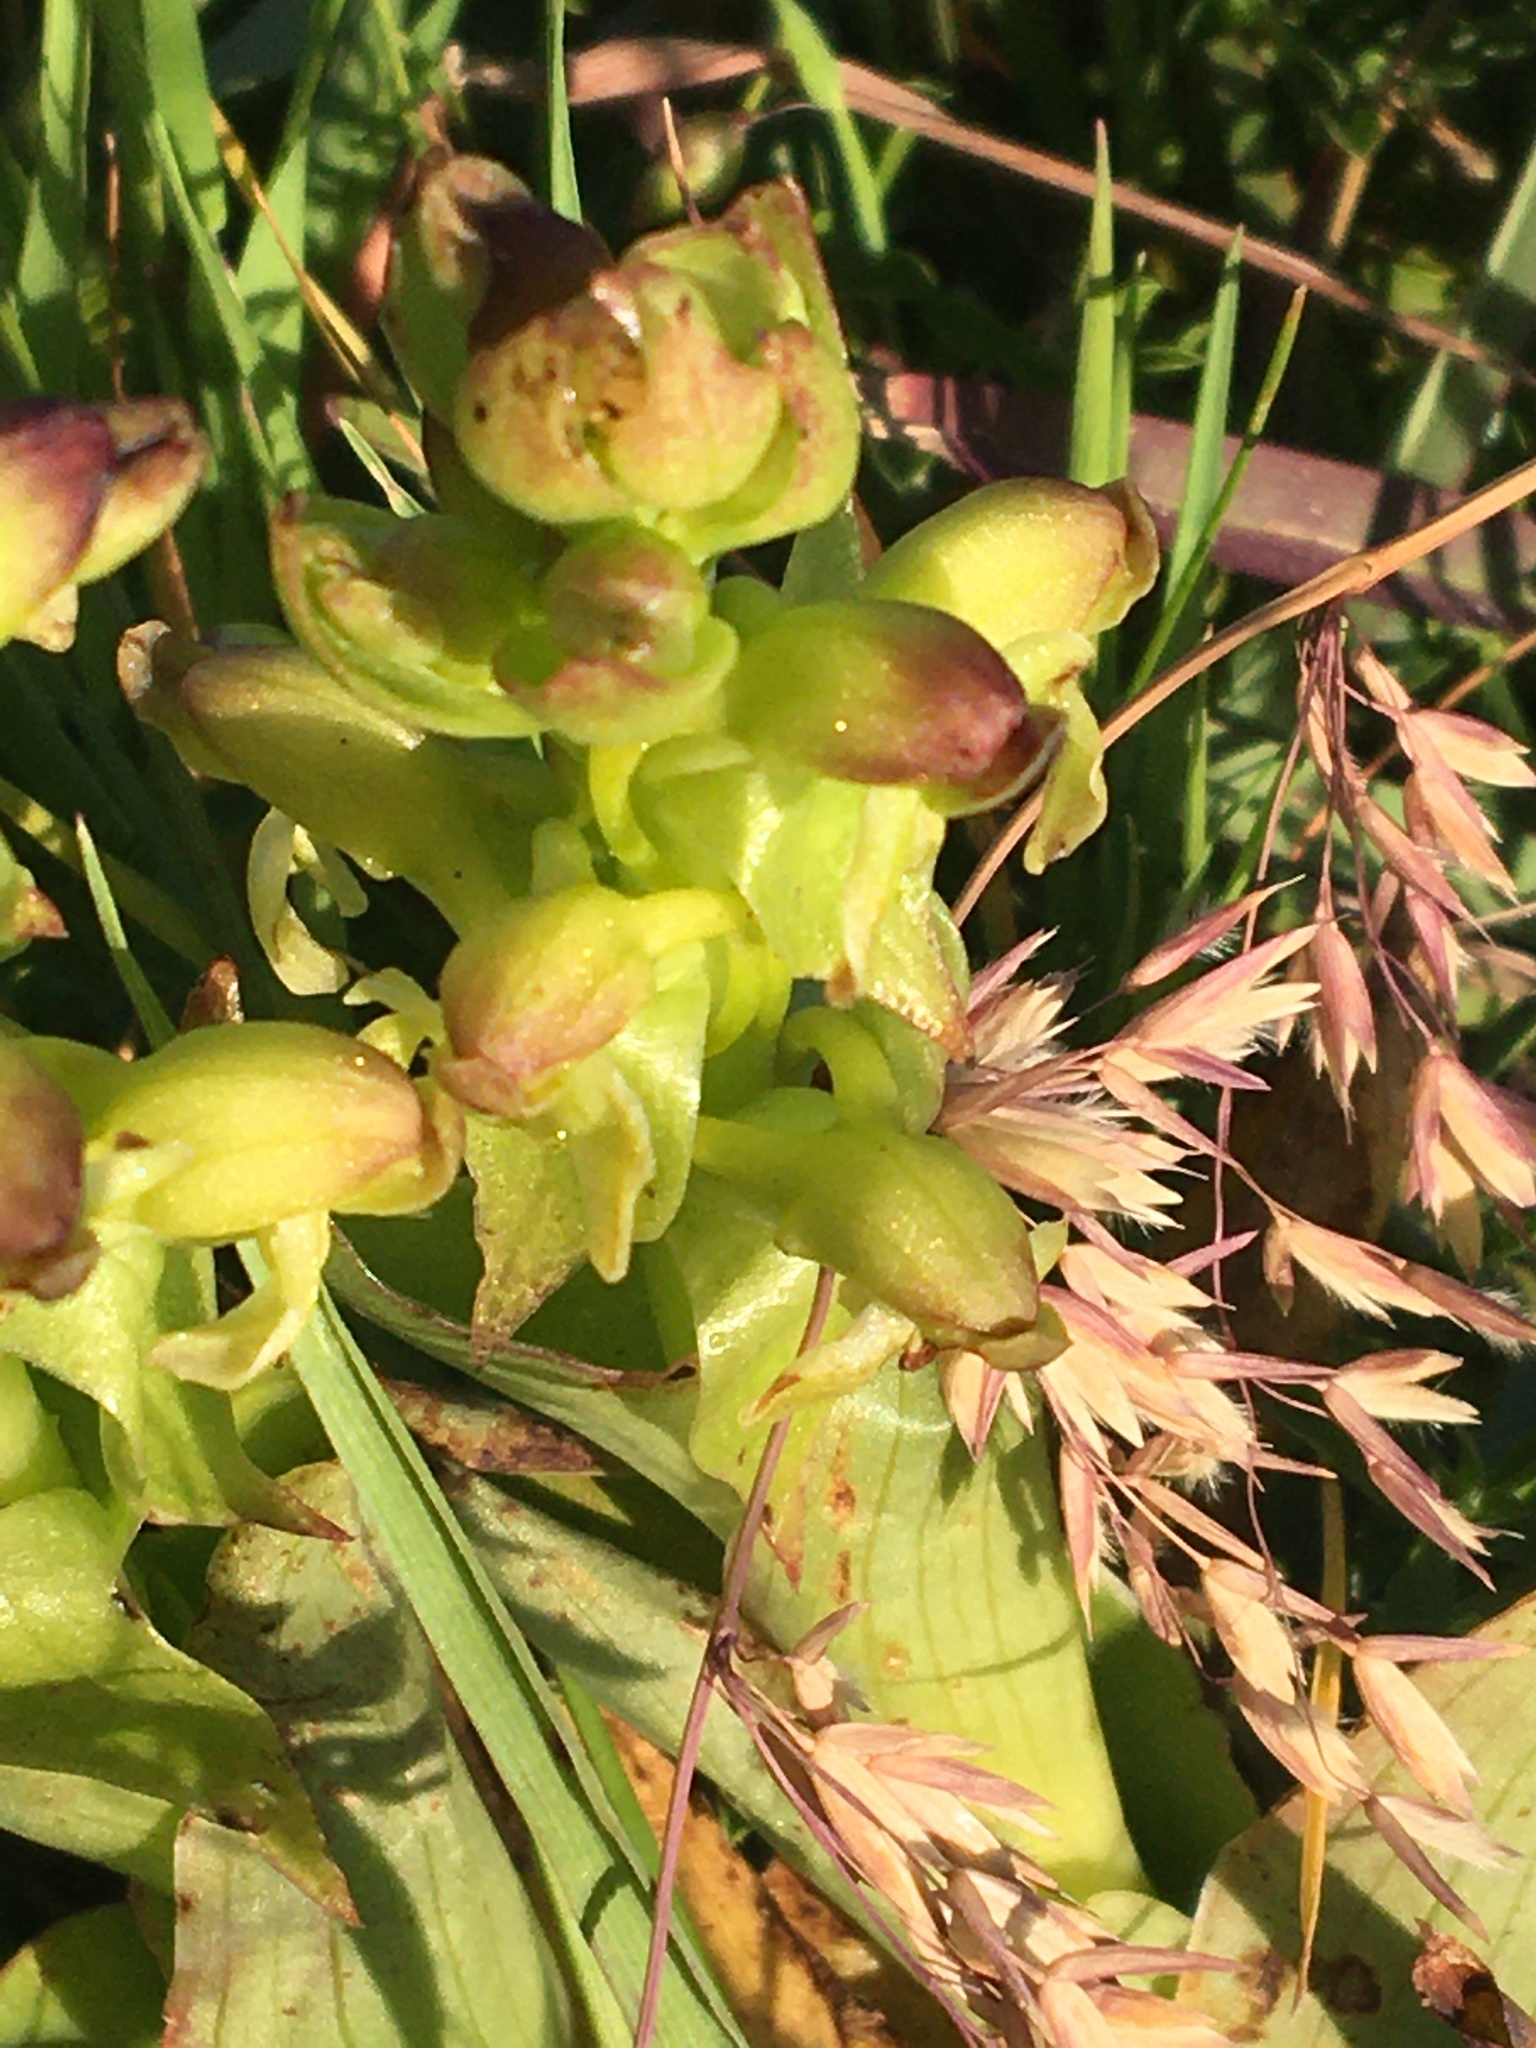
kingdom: Plantae
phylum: Tracheophyta
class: Liliopsida
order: Asparagales
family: Orchidaceae
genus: Satyrium
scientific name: Satyrium odorum
